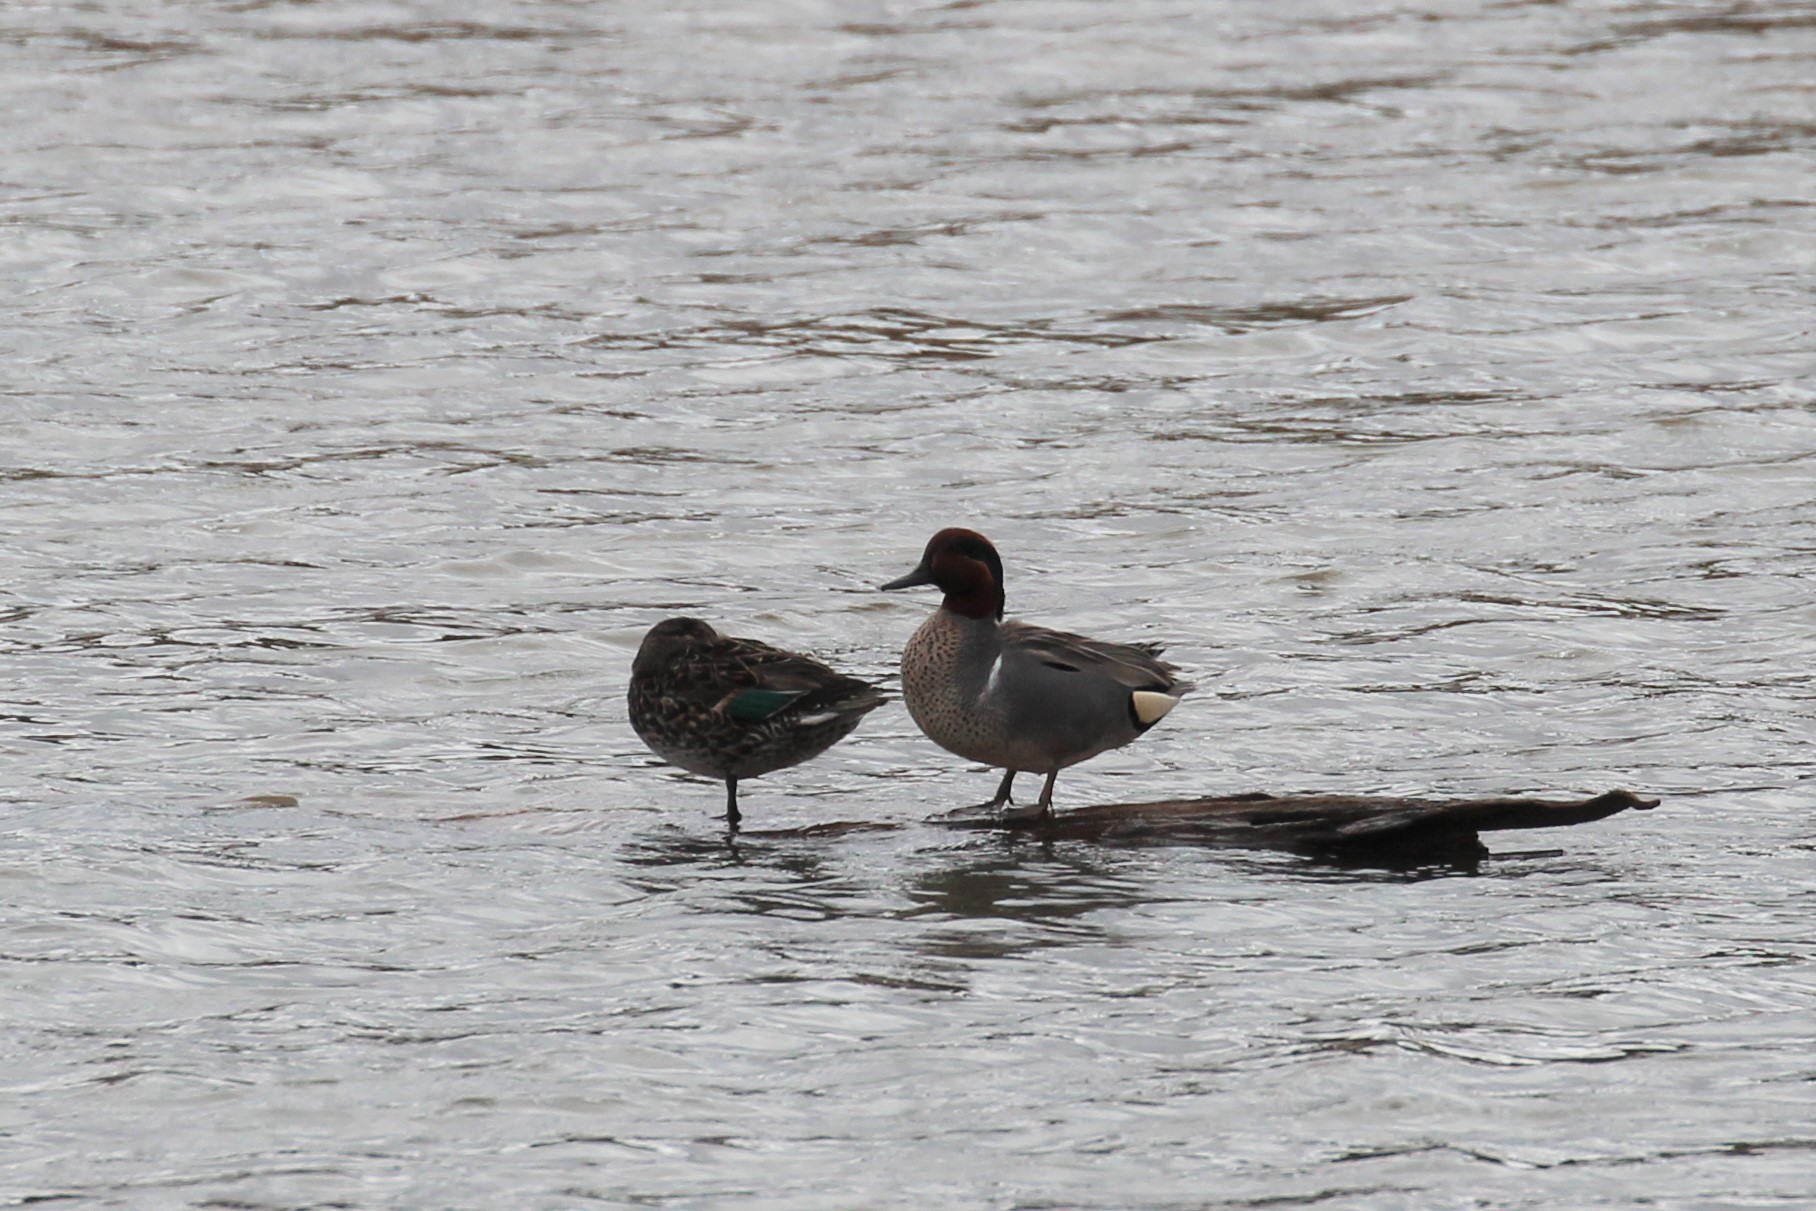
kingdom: Animalia
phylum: Chordata
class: Aves
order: Anseriformes
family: Anatidae
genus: Anas
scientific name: Anas crecca
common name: Eurasian teal
